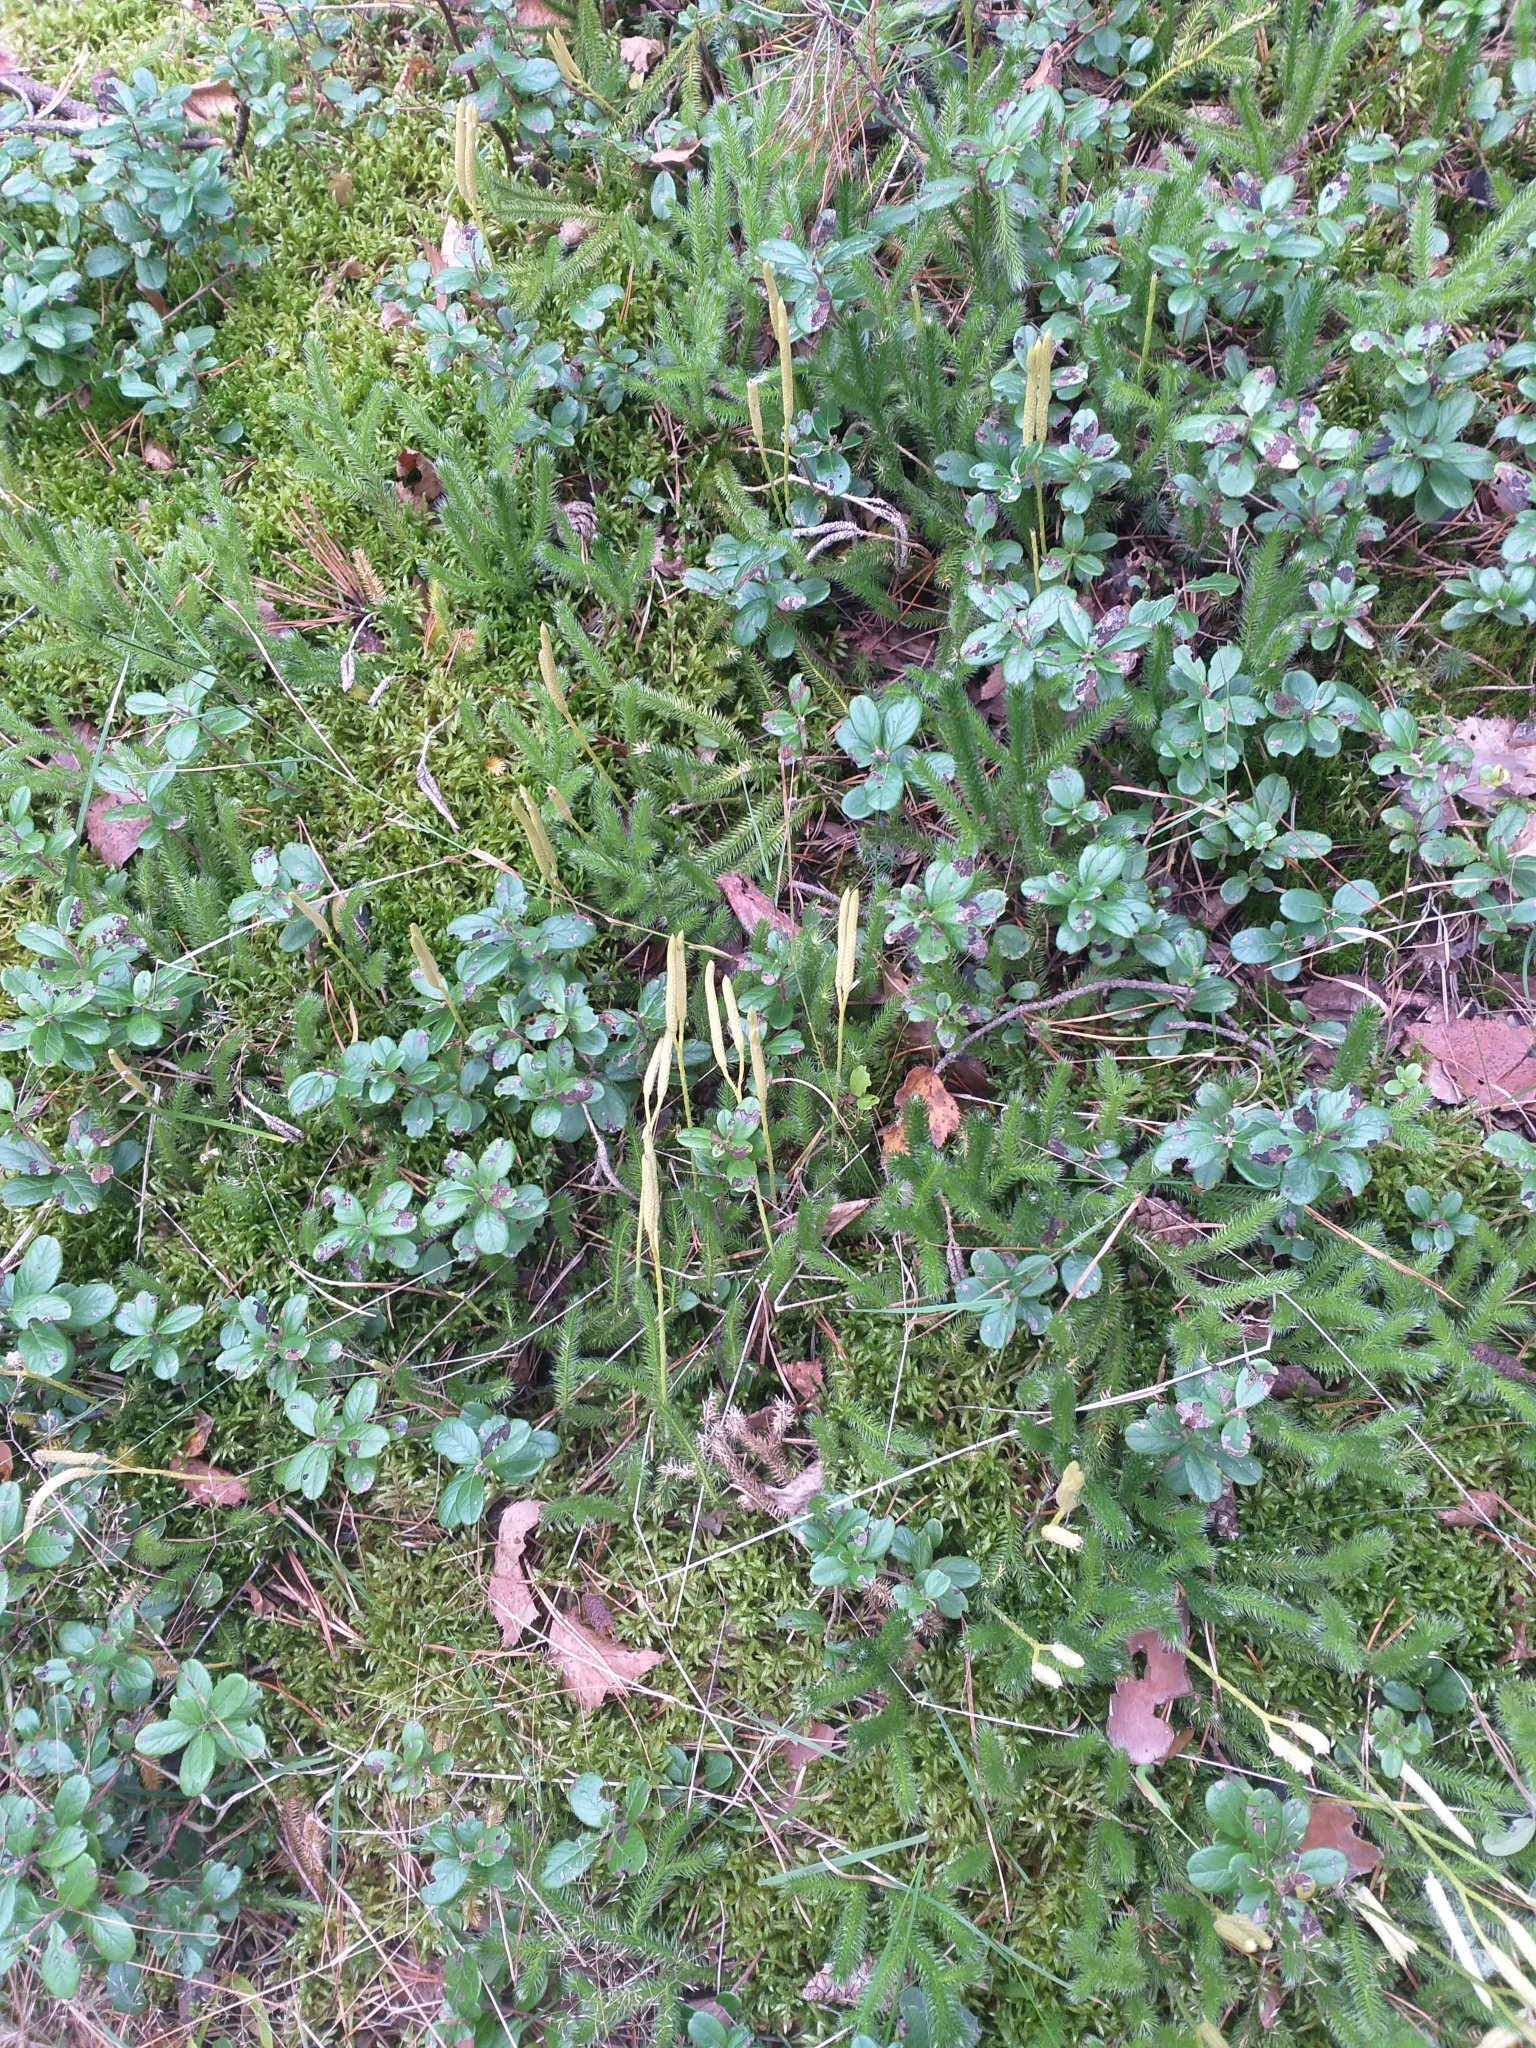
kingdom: Plantae
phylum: Tracheophyta
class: Lycopodiopsida
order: Lycopodiales
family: Lycopodiaceae
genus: Lycopodium
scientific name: Lycopodium clavatum
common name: Stag's-horn clubmoss
